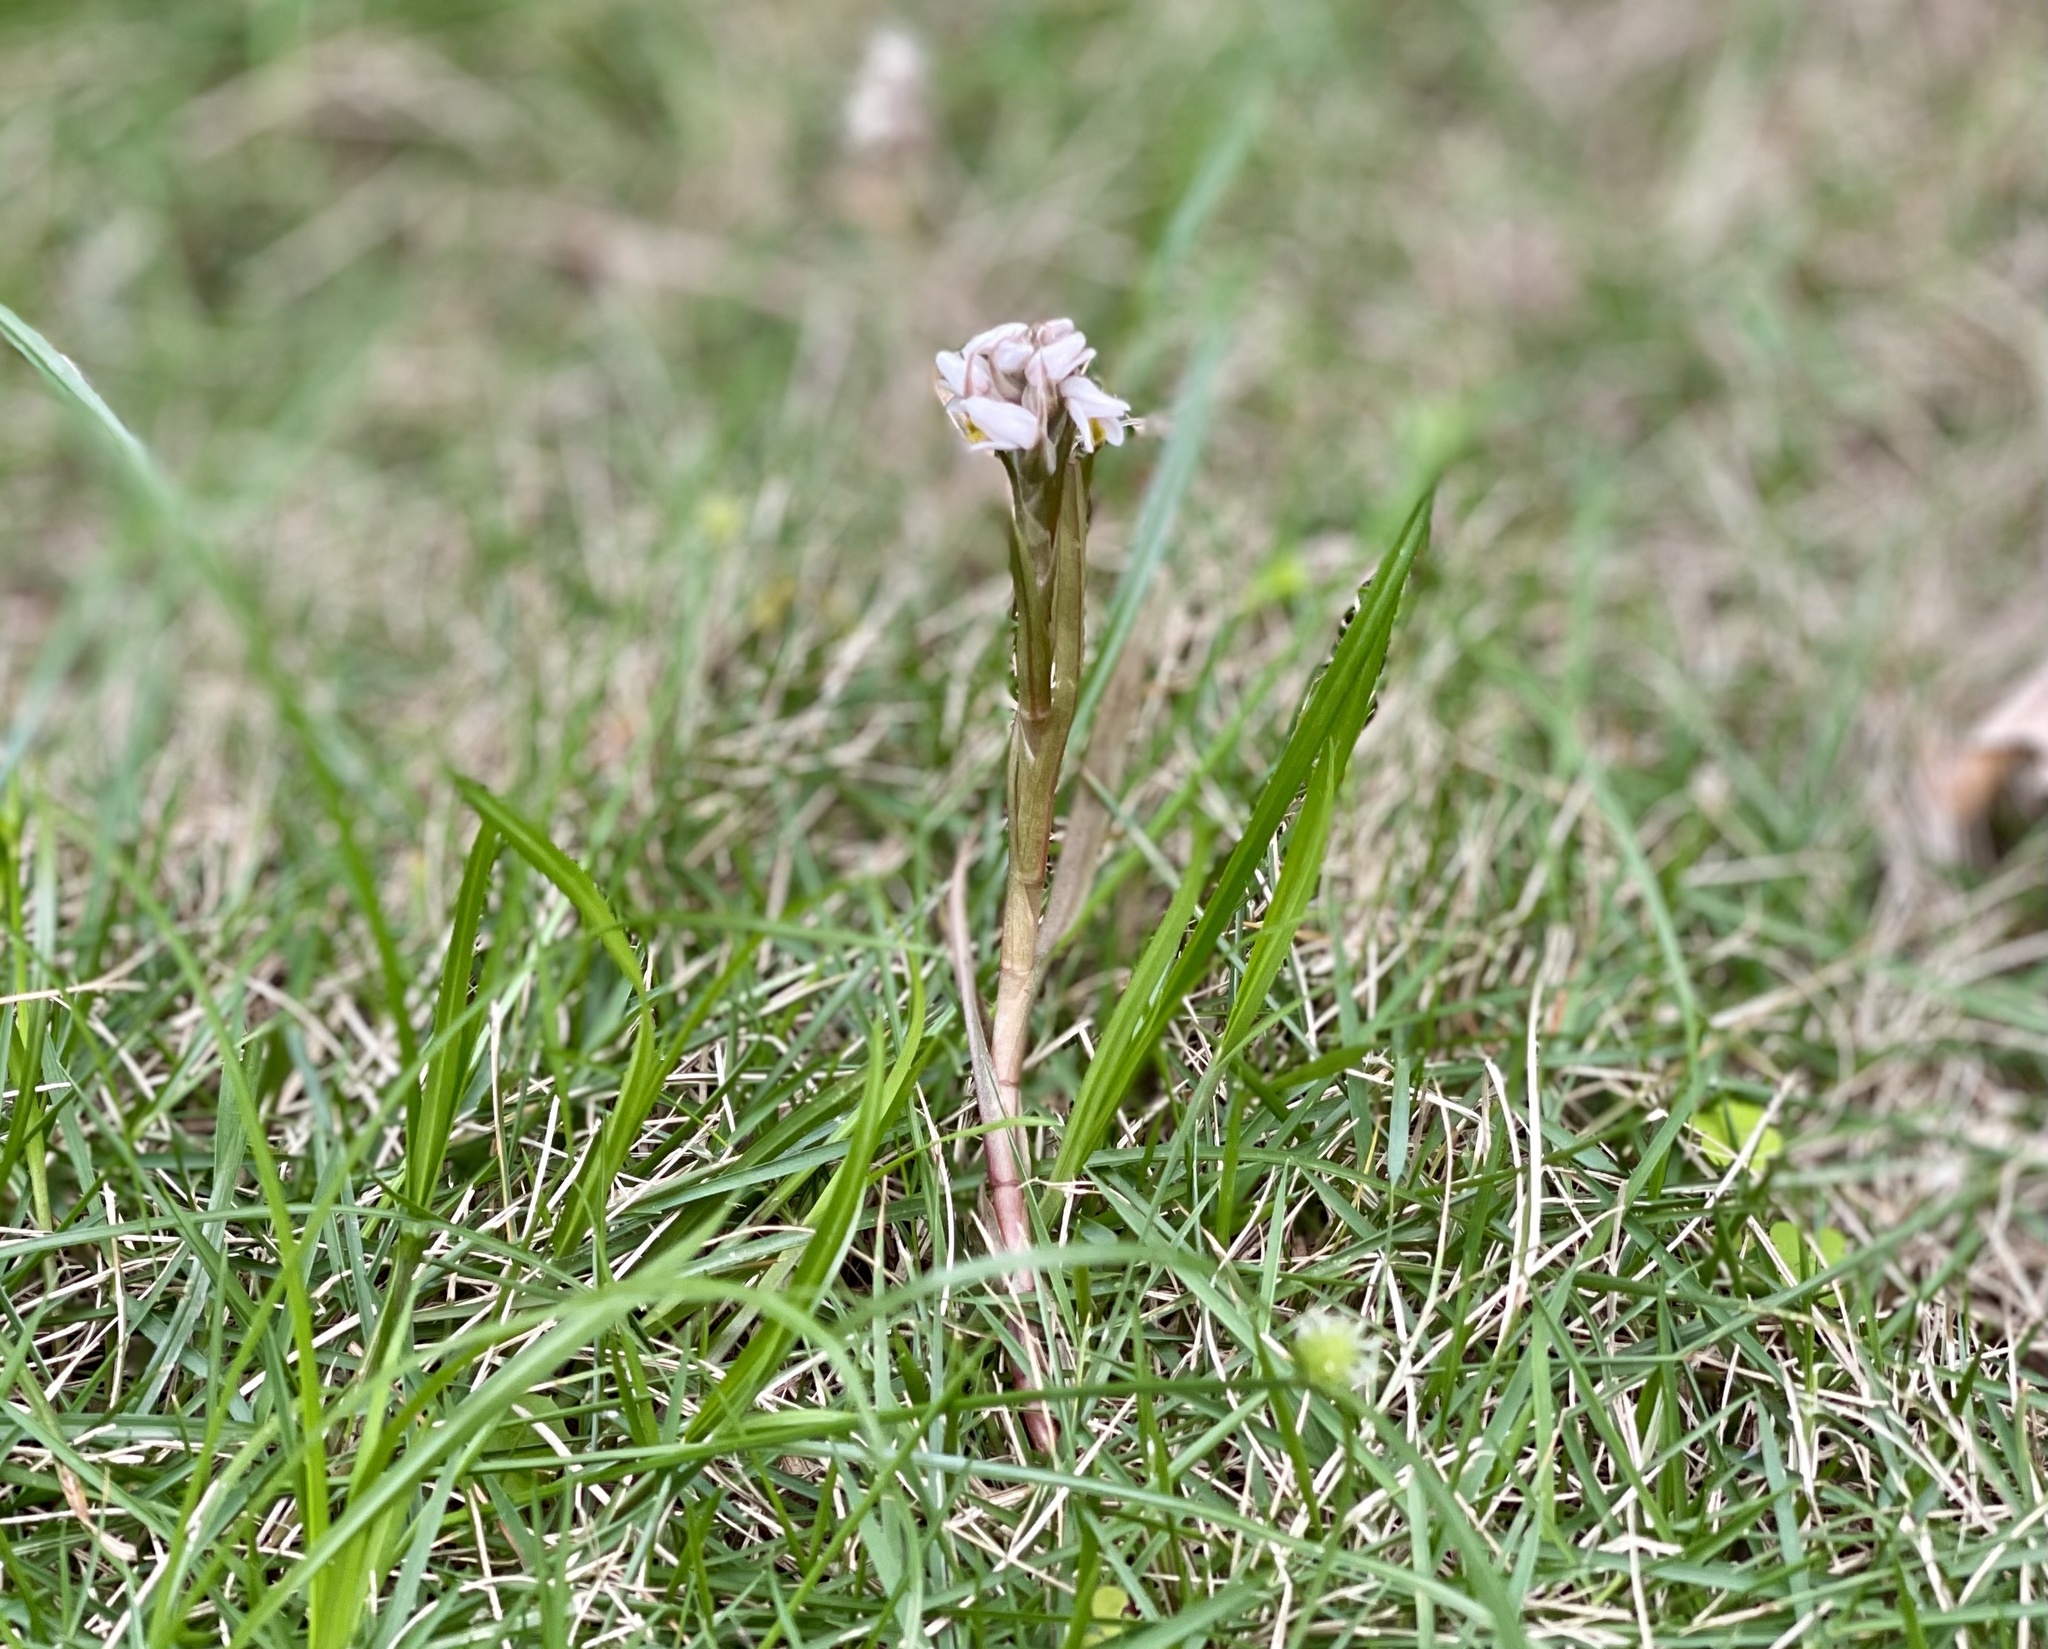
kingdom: Plantae
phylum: Tracheophyta
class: Liliopsida
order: Asparagales
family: Orchidaceae
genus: Zeuxine
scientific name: Zeuxine strateumatica
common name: Soldier's orchid
